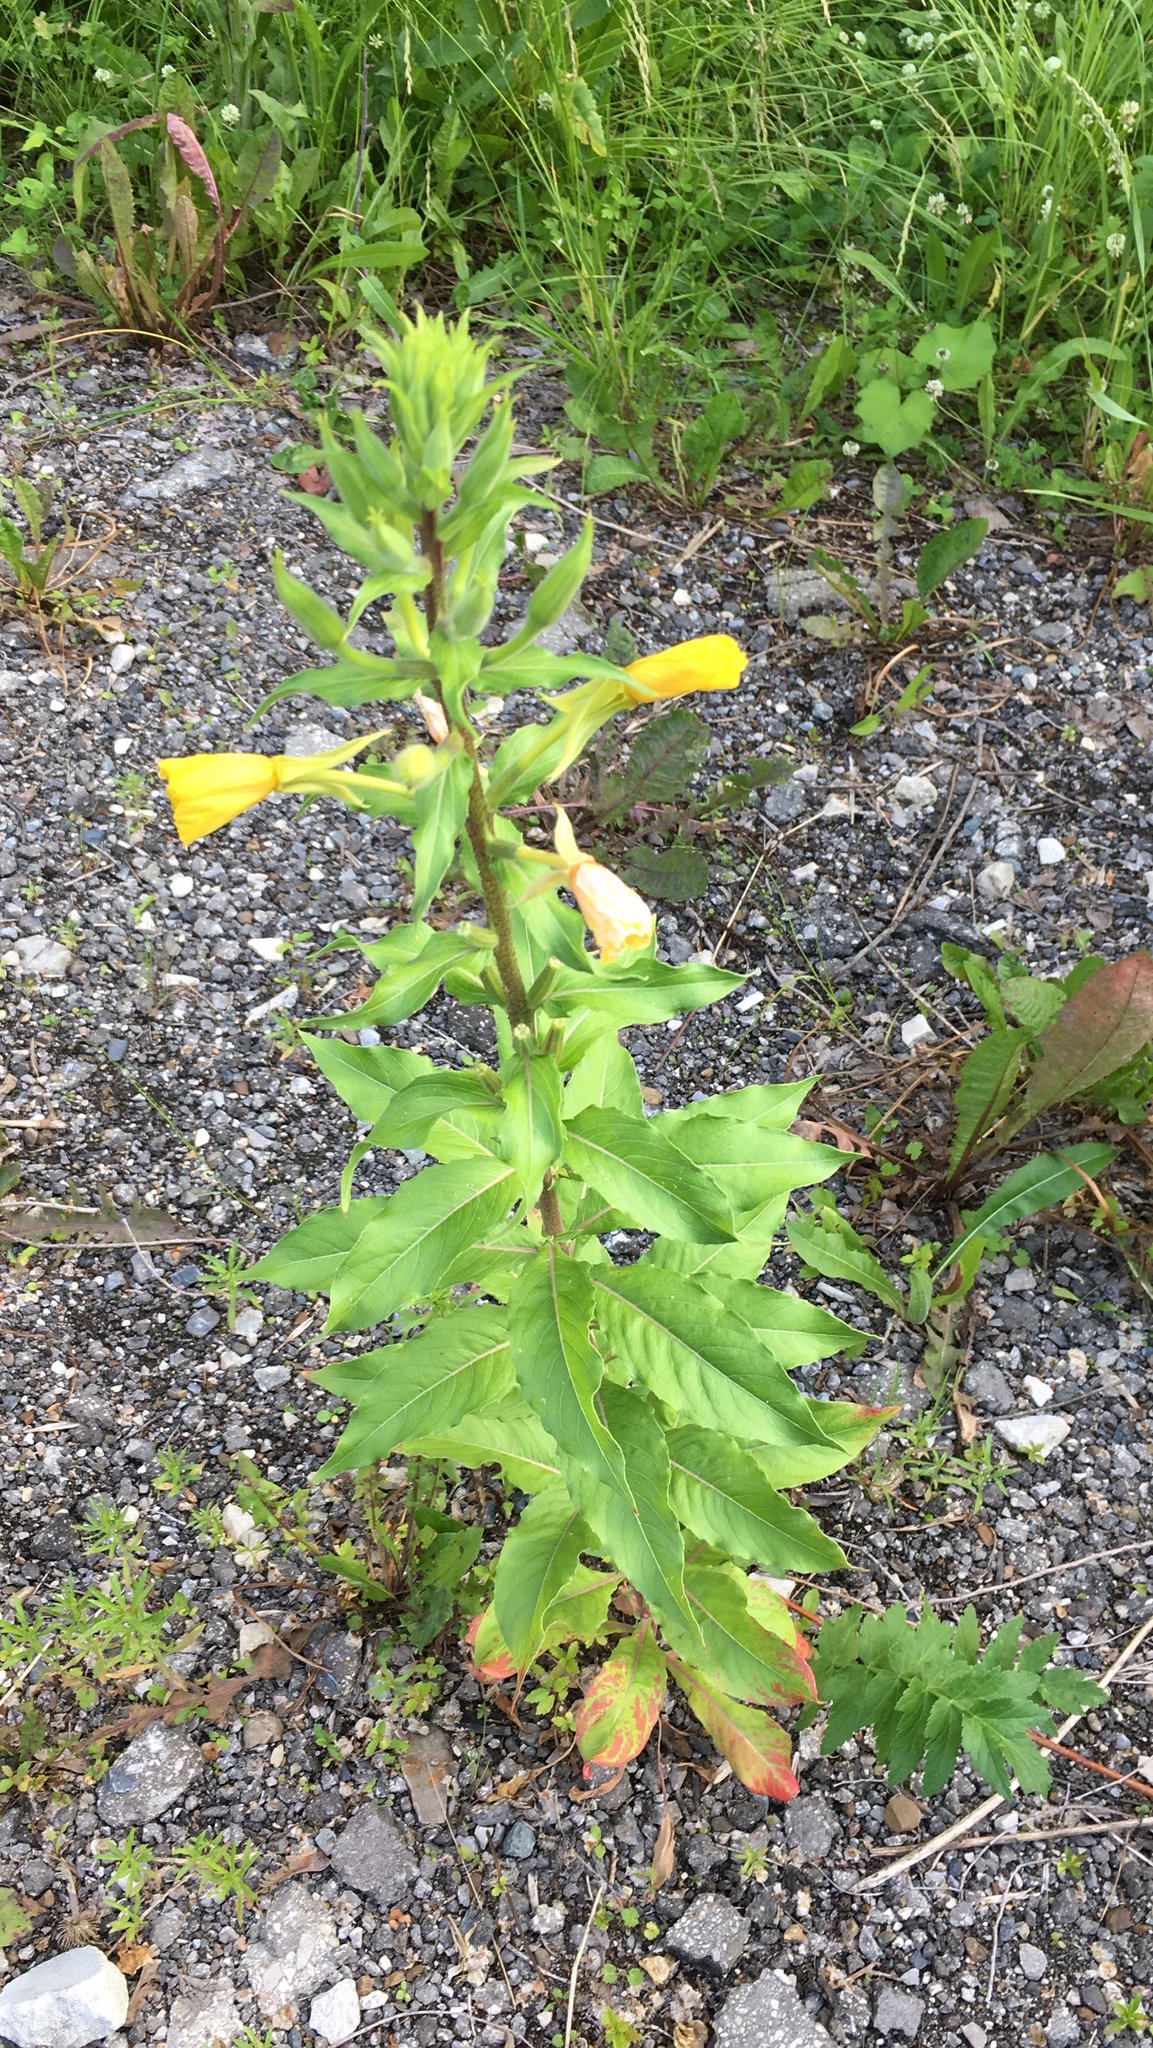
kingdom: Plantae
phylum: Tracheophyta
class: Magnoliopsida
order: Myrtales
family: Onagraceae
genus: Oenothera
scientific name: Oenothera rubricaulis
